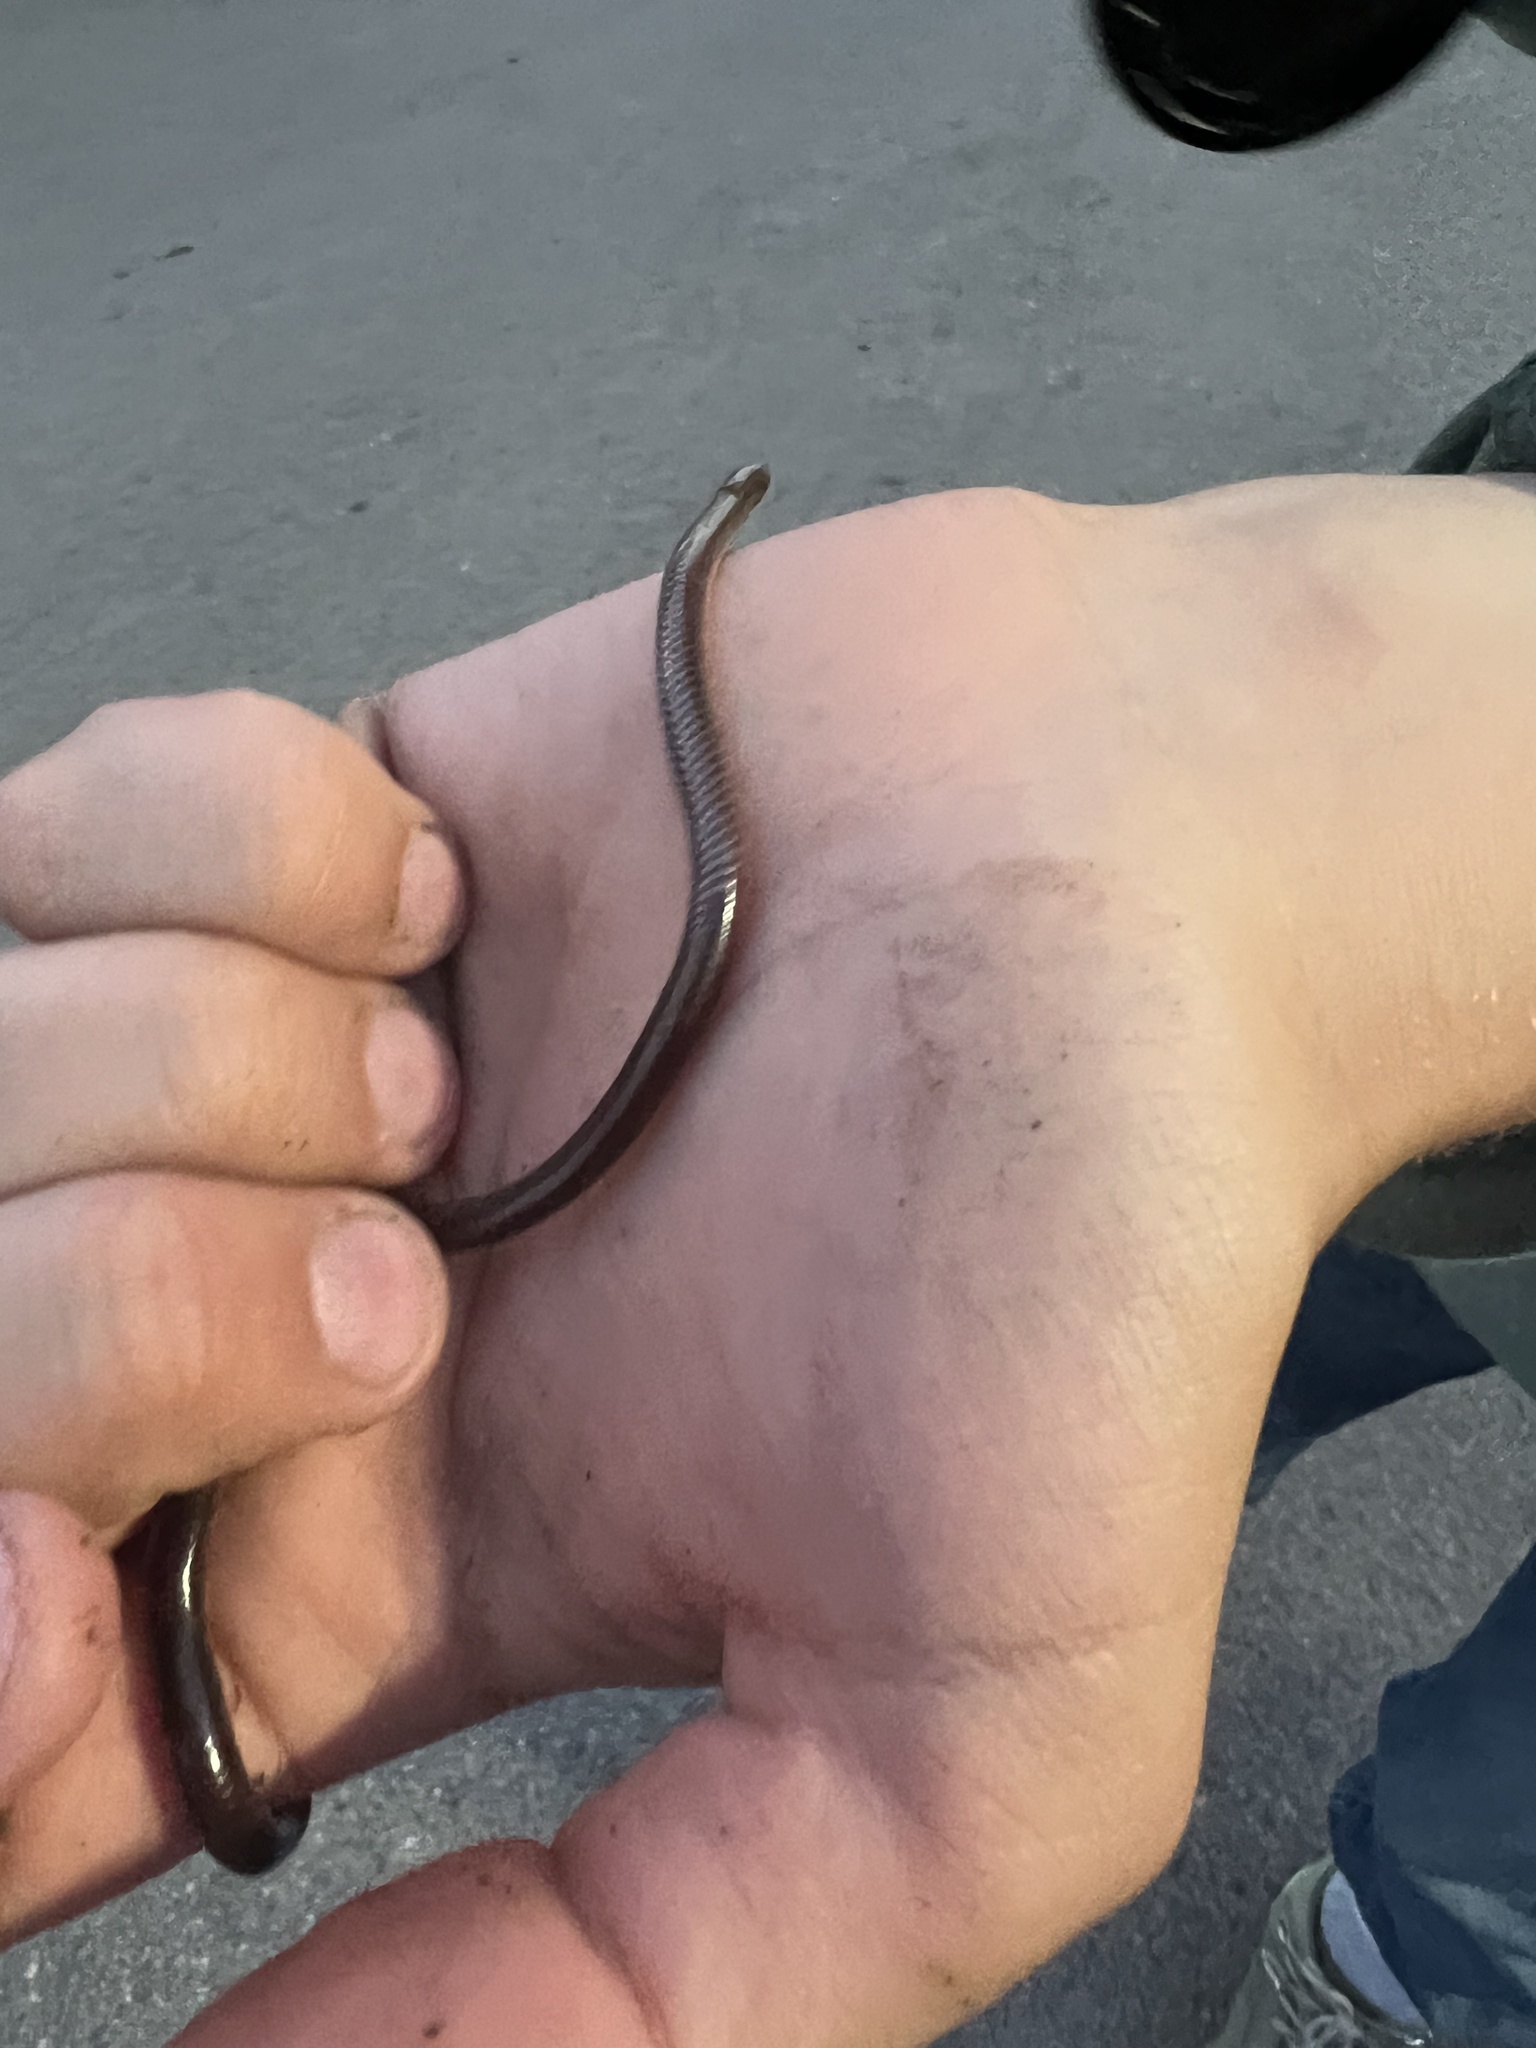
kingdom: Animalia
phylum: Chordata
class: Squamata
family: Leptotyphlopidae
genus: Rena
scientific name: Rena dulcis
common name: Texas blind snake
